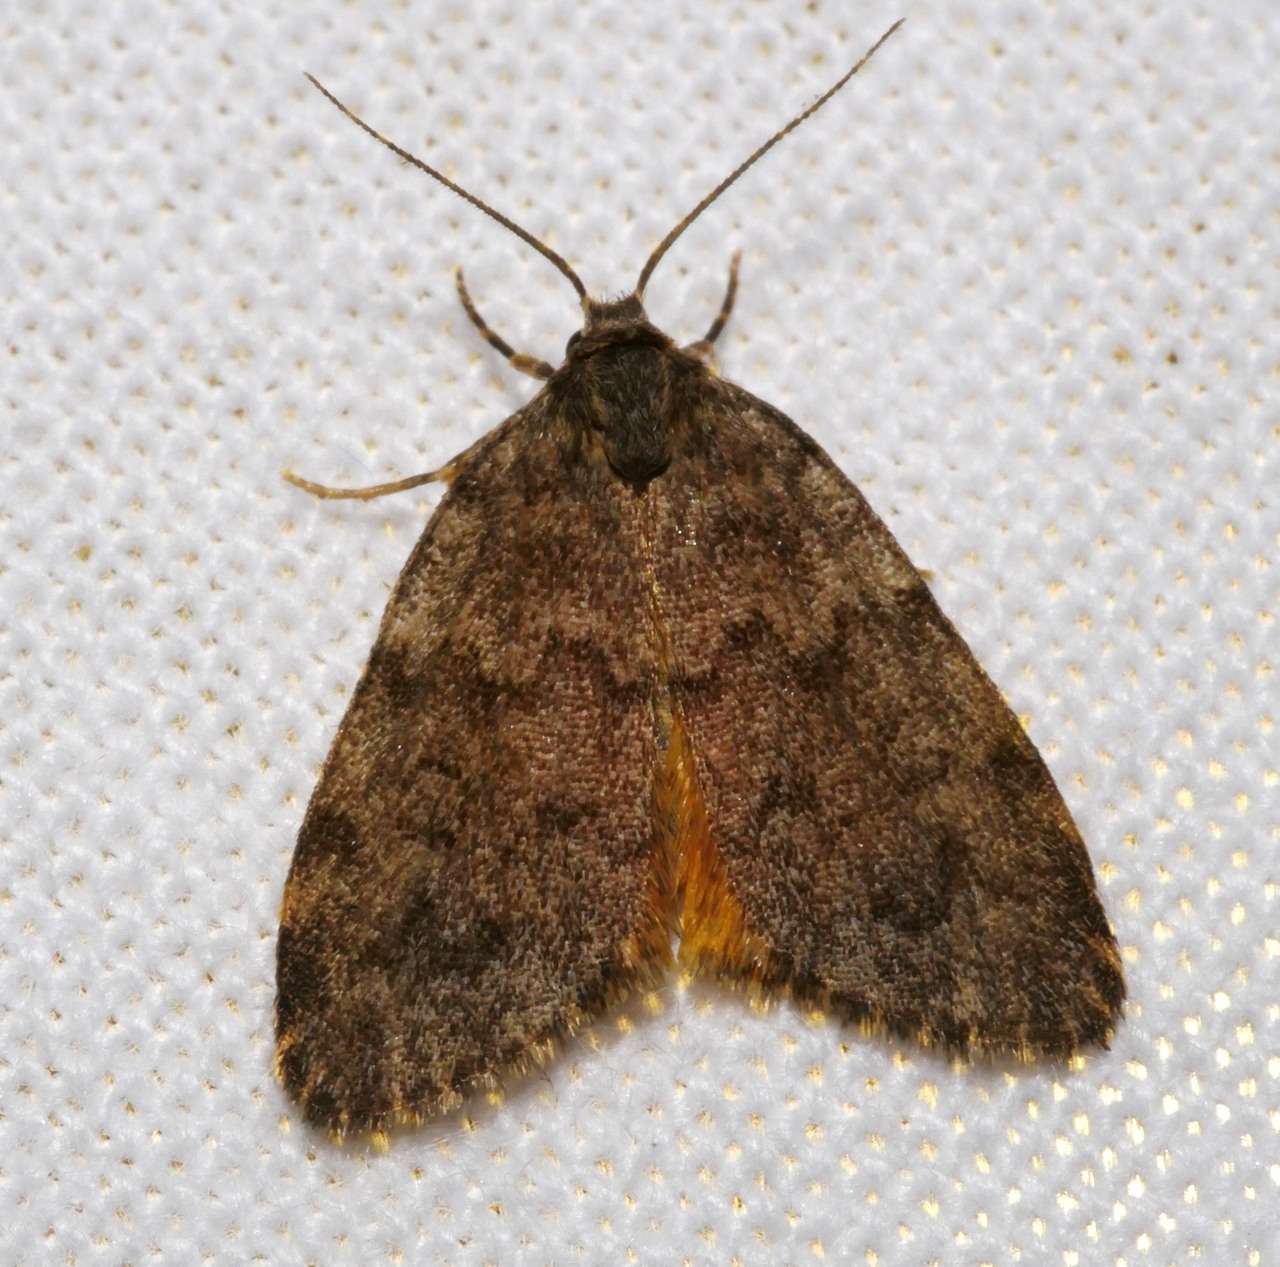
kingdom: Animalia
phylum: Arthropoda
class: Insecta
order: Lepidoptera
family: Erebidae
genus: Halone
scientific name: Halone consolatrix
